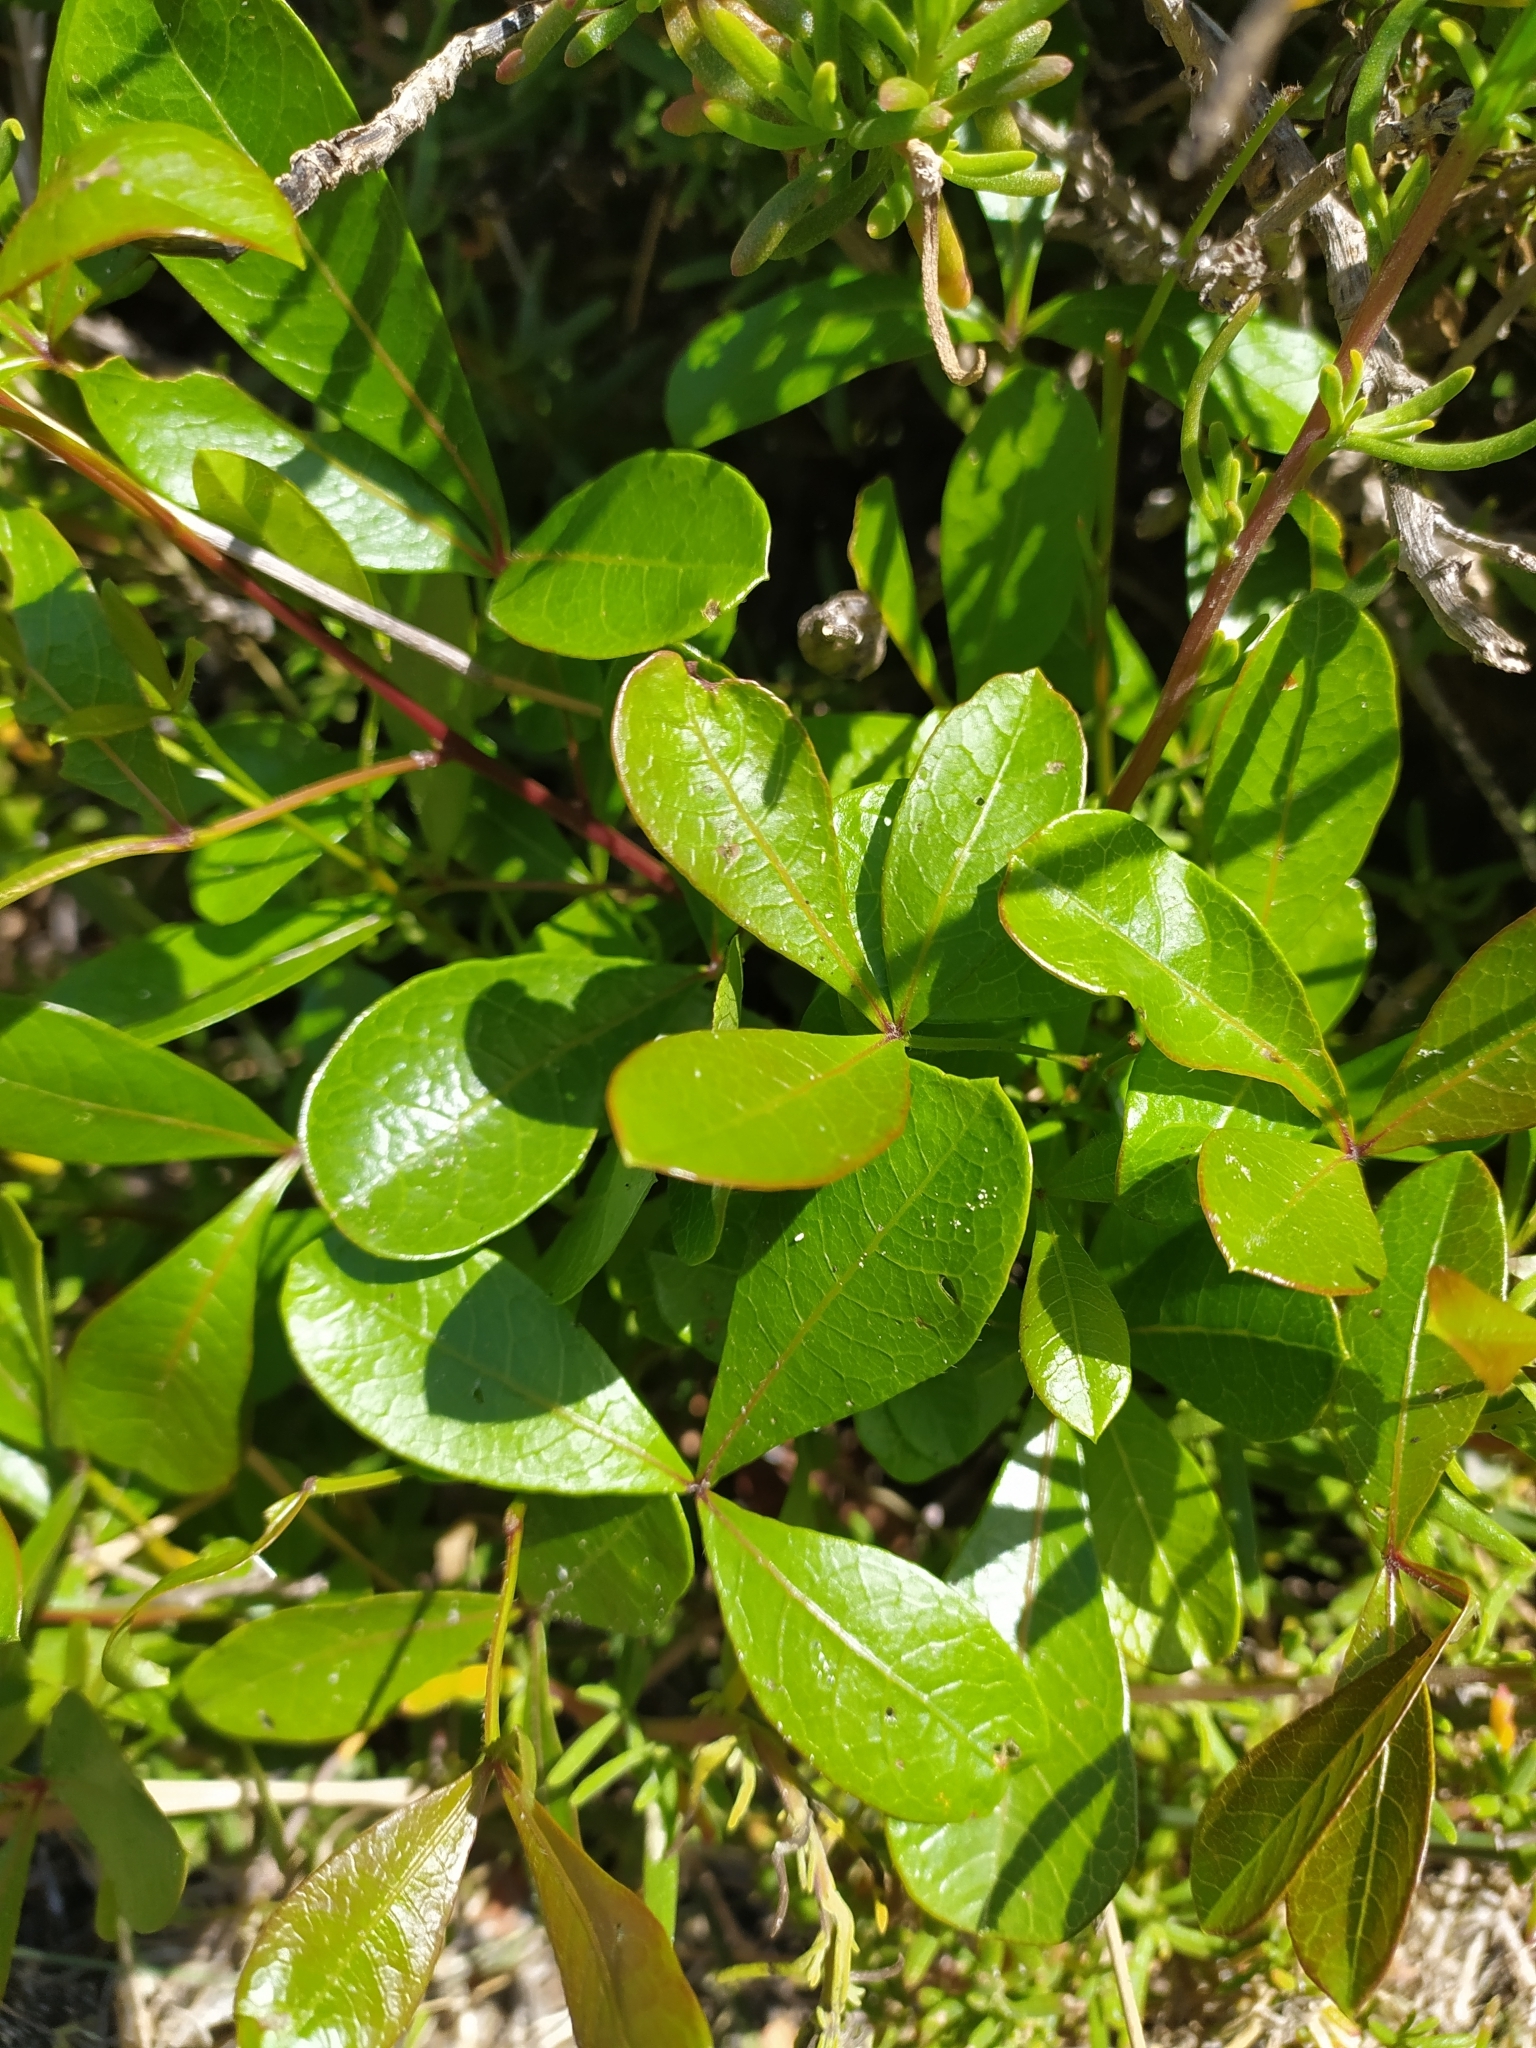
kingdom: Plantae
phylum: Tracheophyta
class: Magnoliopsida
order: Sapindales
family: Anacardiaceae
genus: Searsia
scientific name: Searsia laevigata
